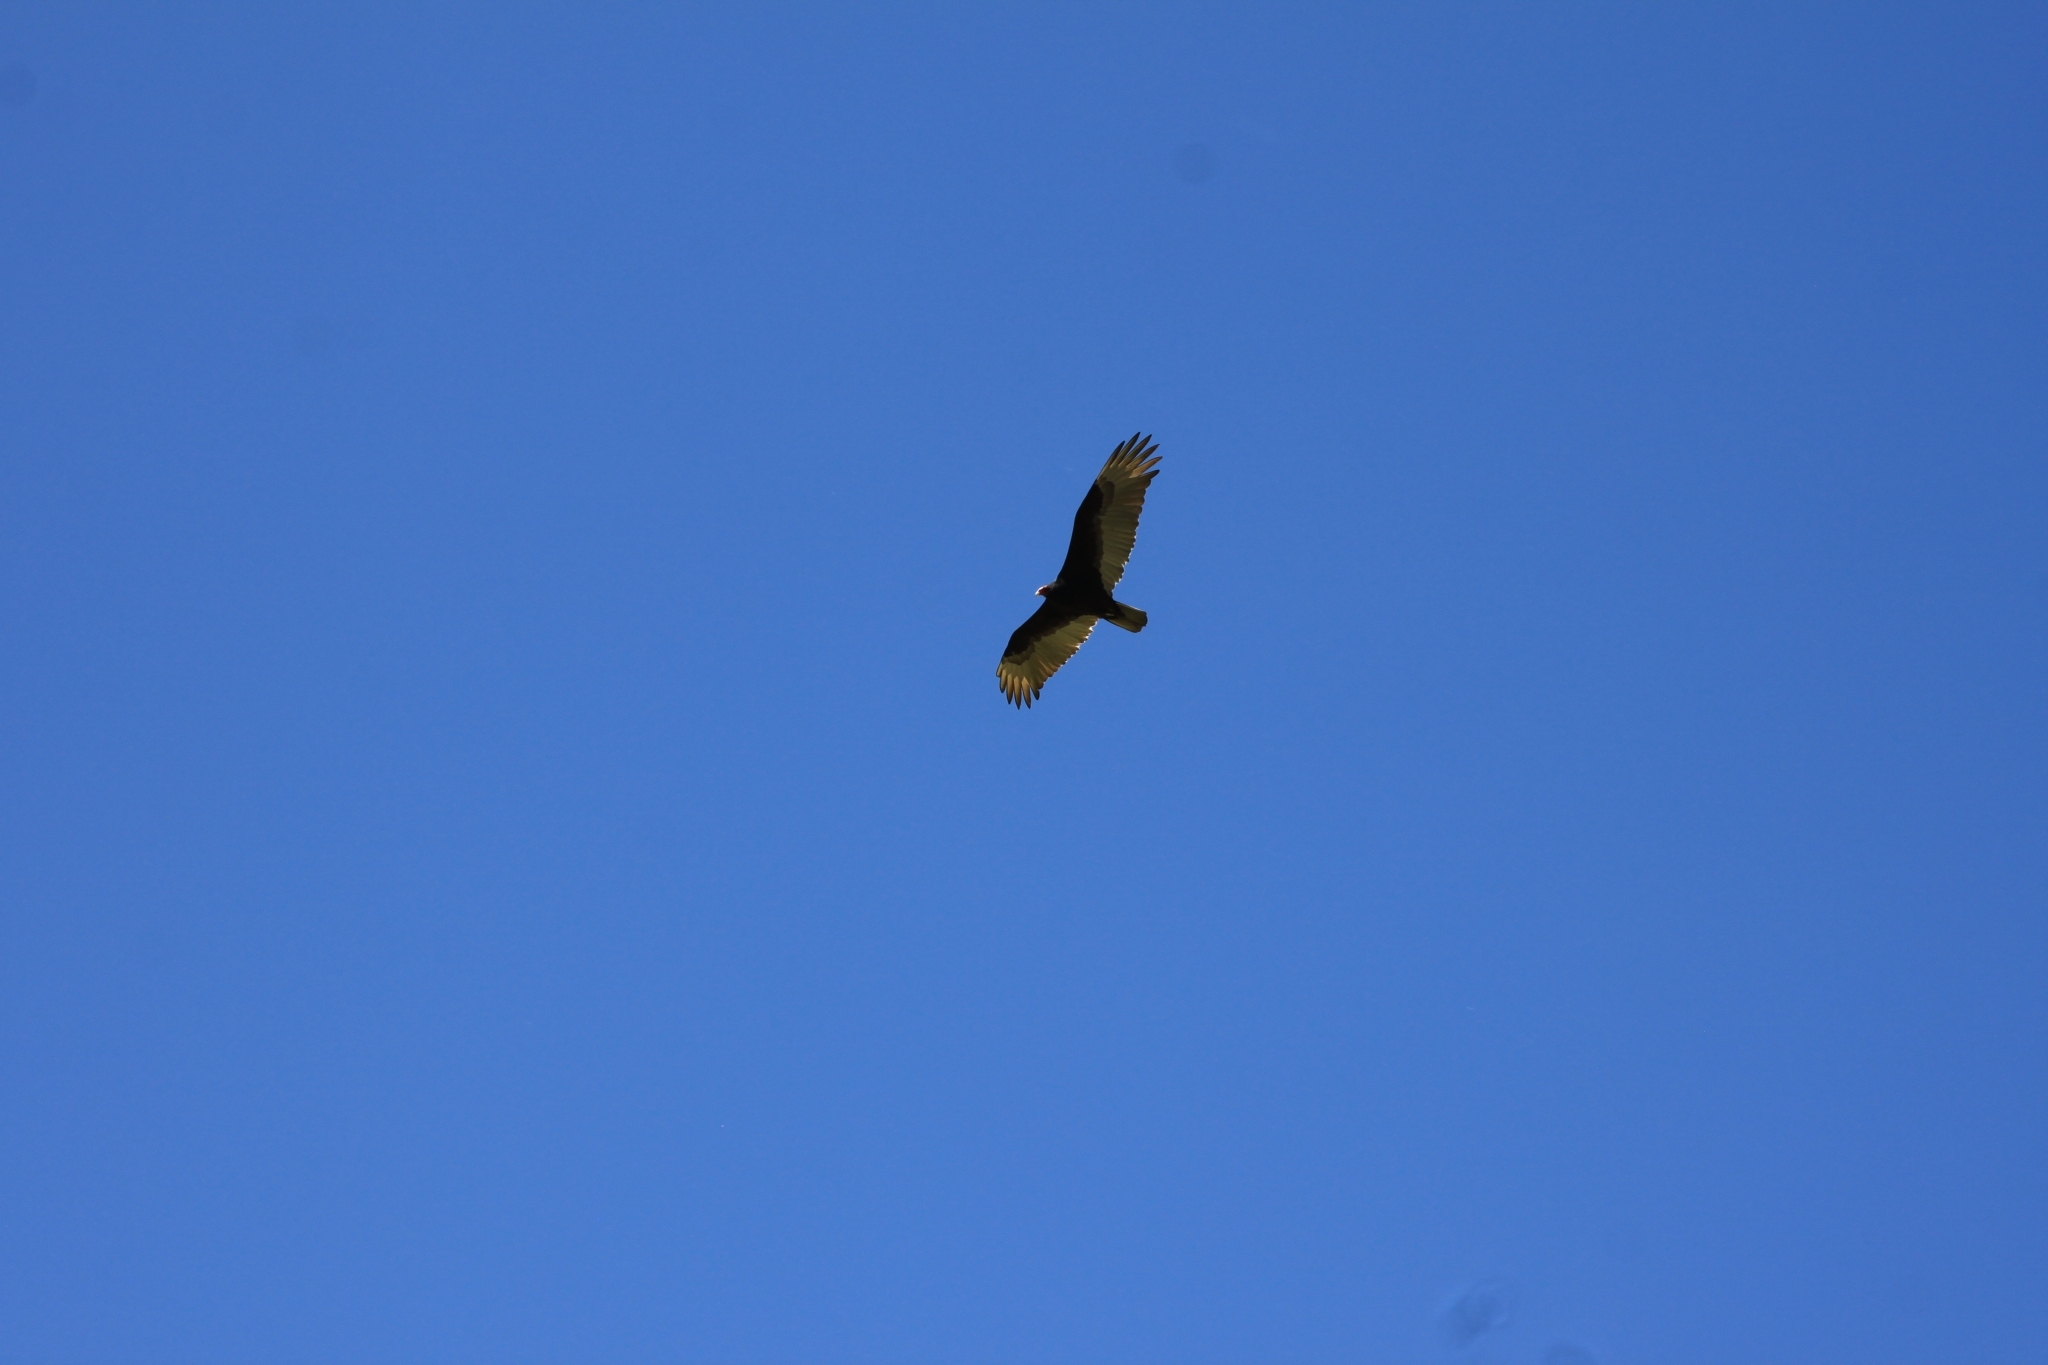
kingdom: Animalia
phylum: Chordata
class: Aves
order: Accipitriformes
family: Cathartidae
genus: Cathartes
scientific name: Cathartes aura
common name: Turkey vulture
